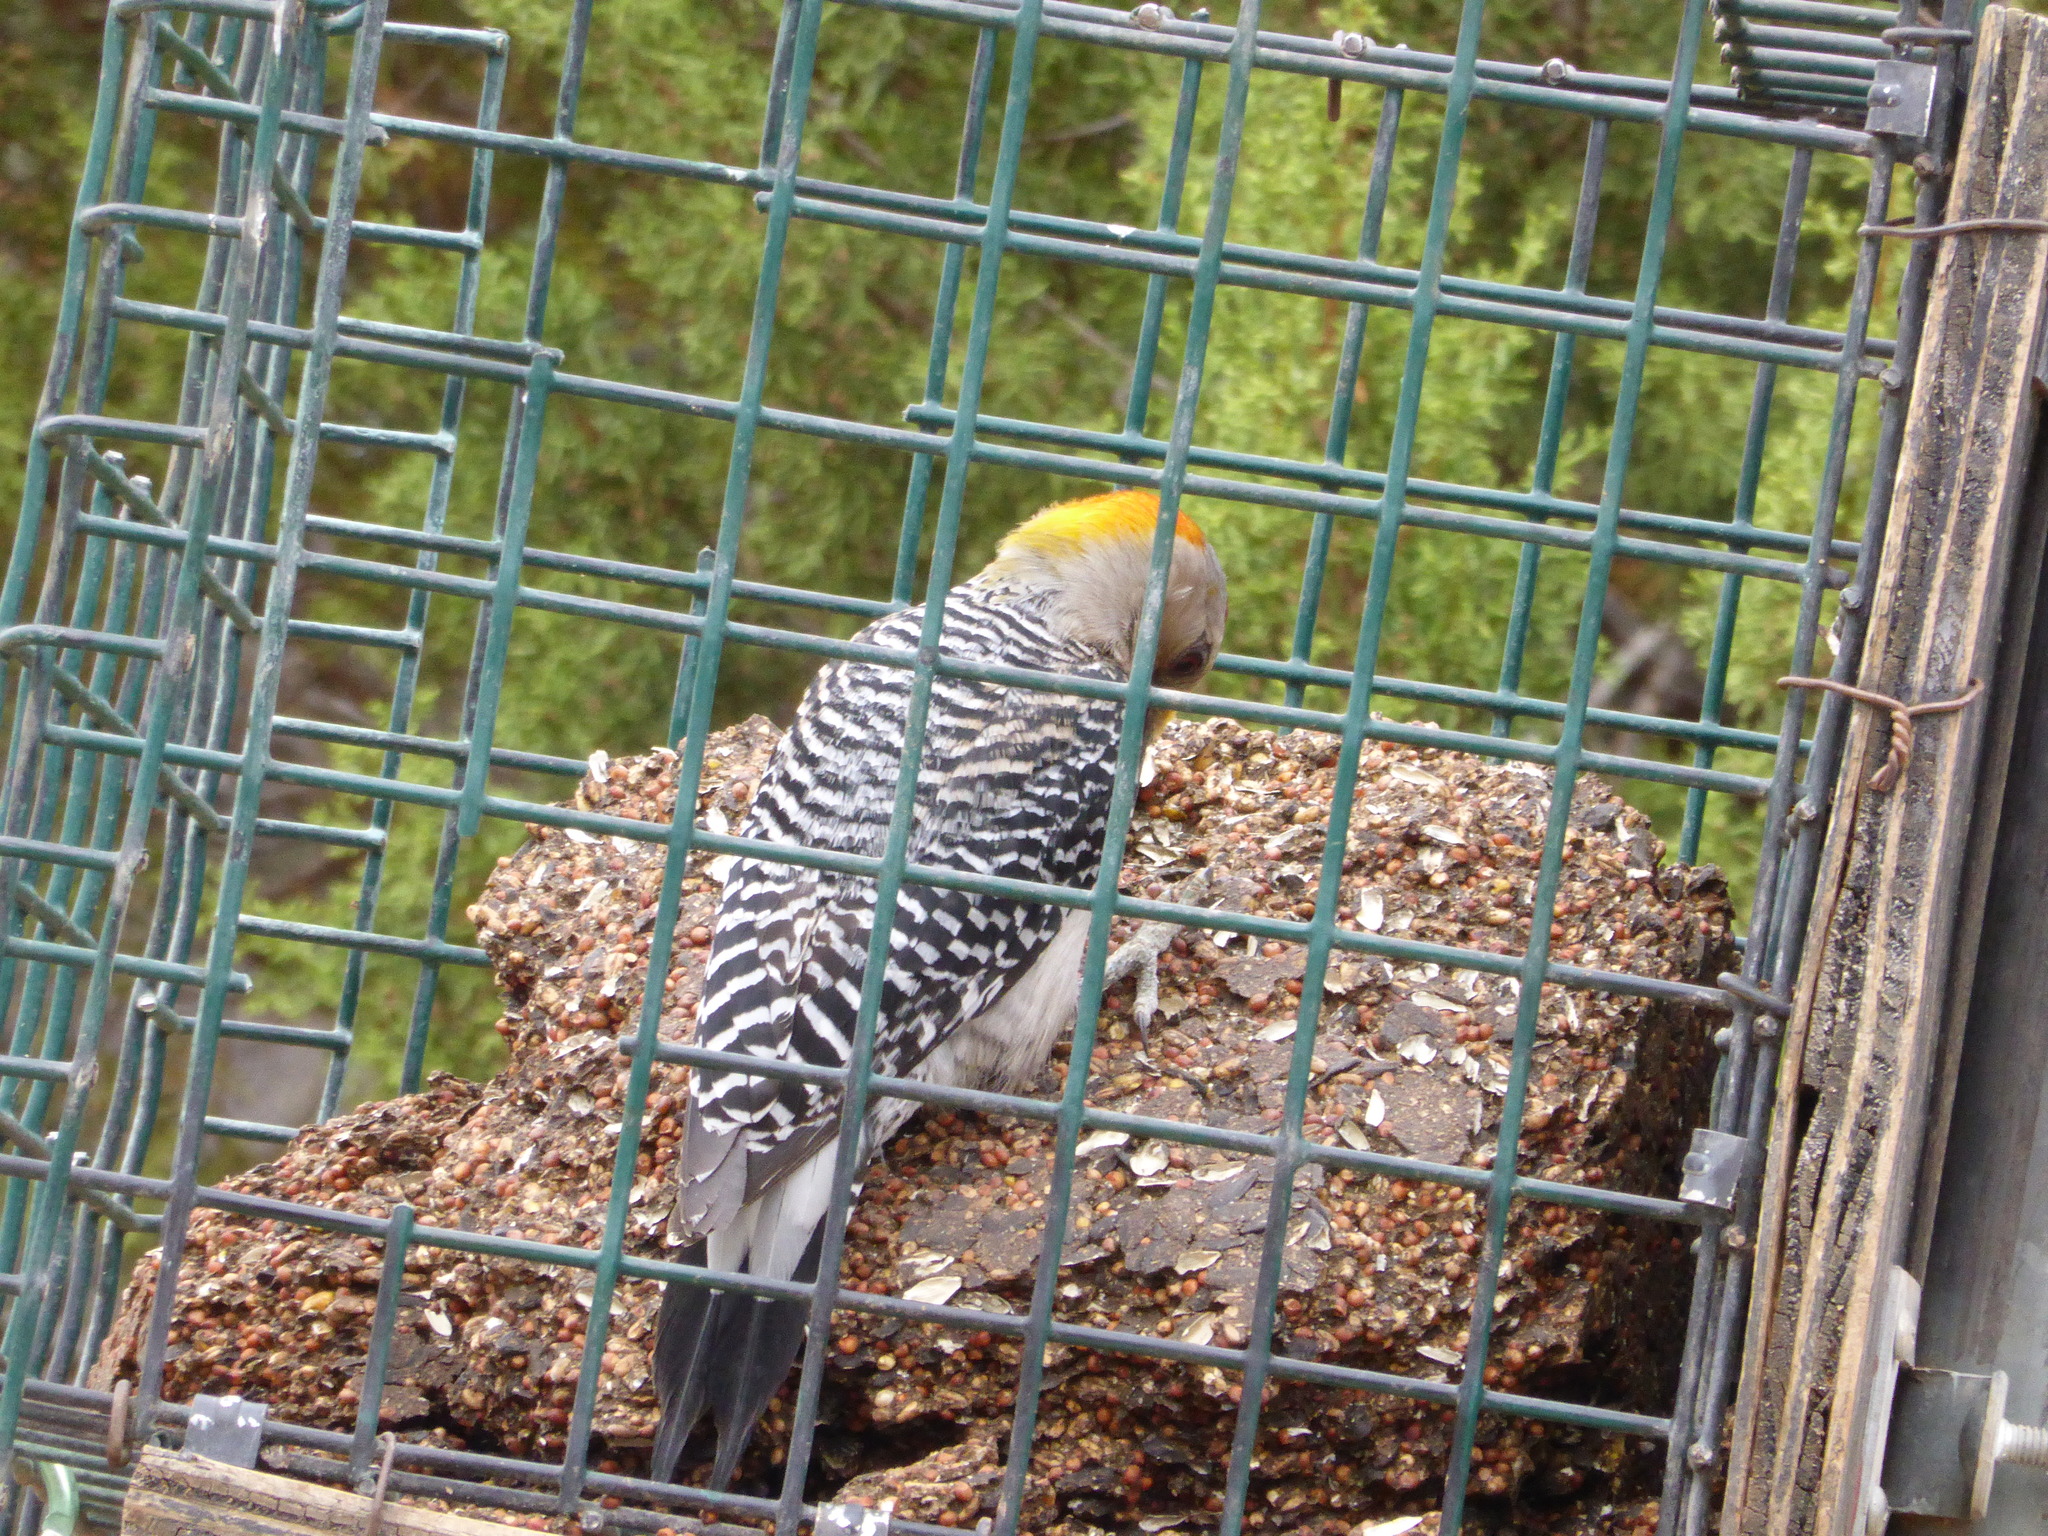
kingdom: Animalia
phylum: Chordata
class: Aves
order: Piciformes
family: Picidae
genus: Melanerpes
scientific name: Melanerpes aurifrons
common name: Golden-fronted woodpecker
